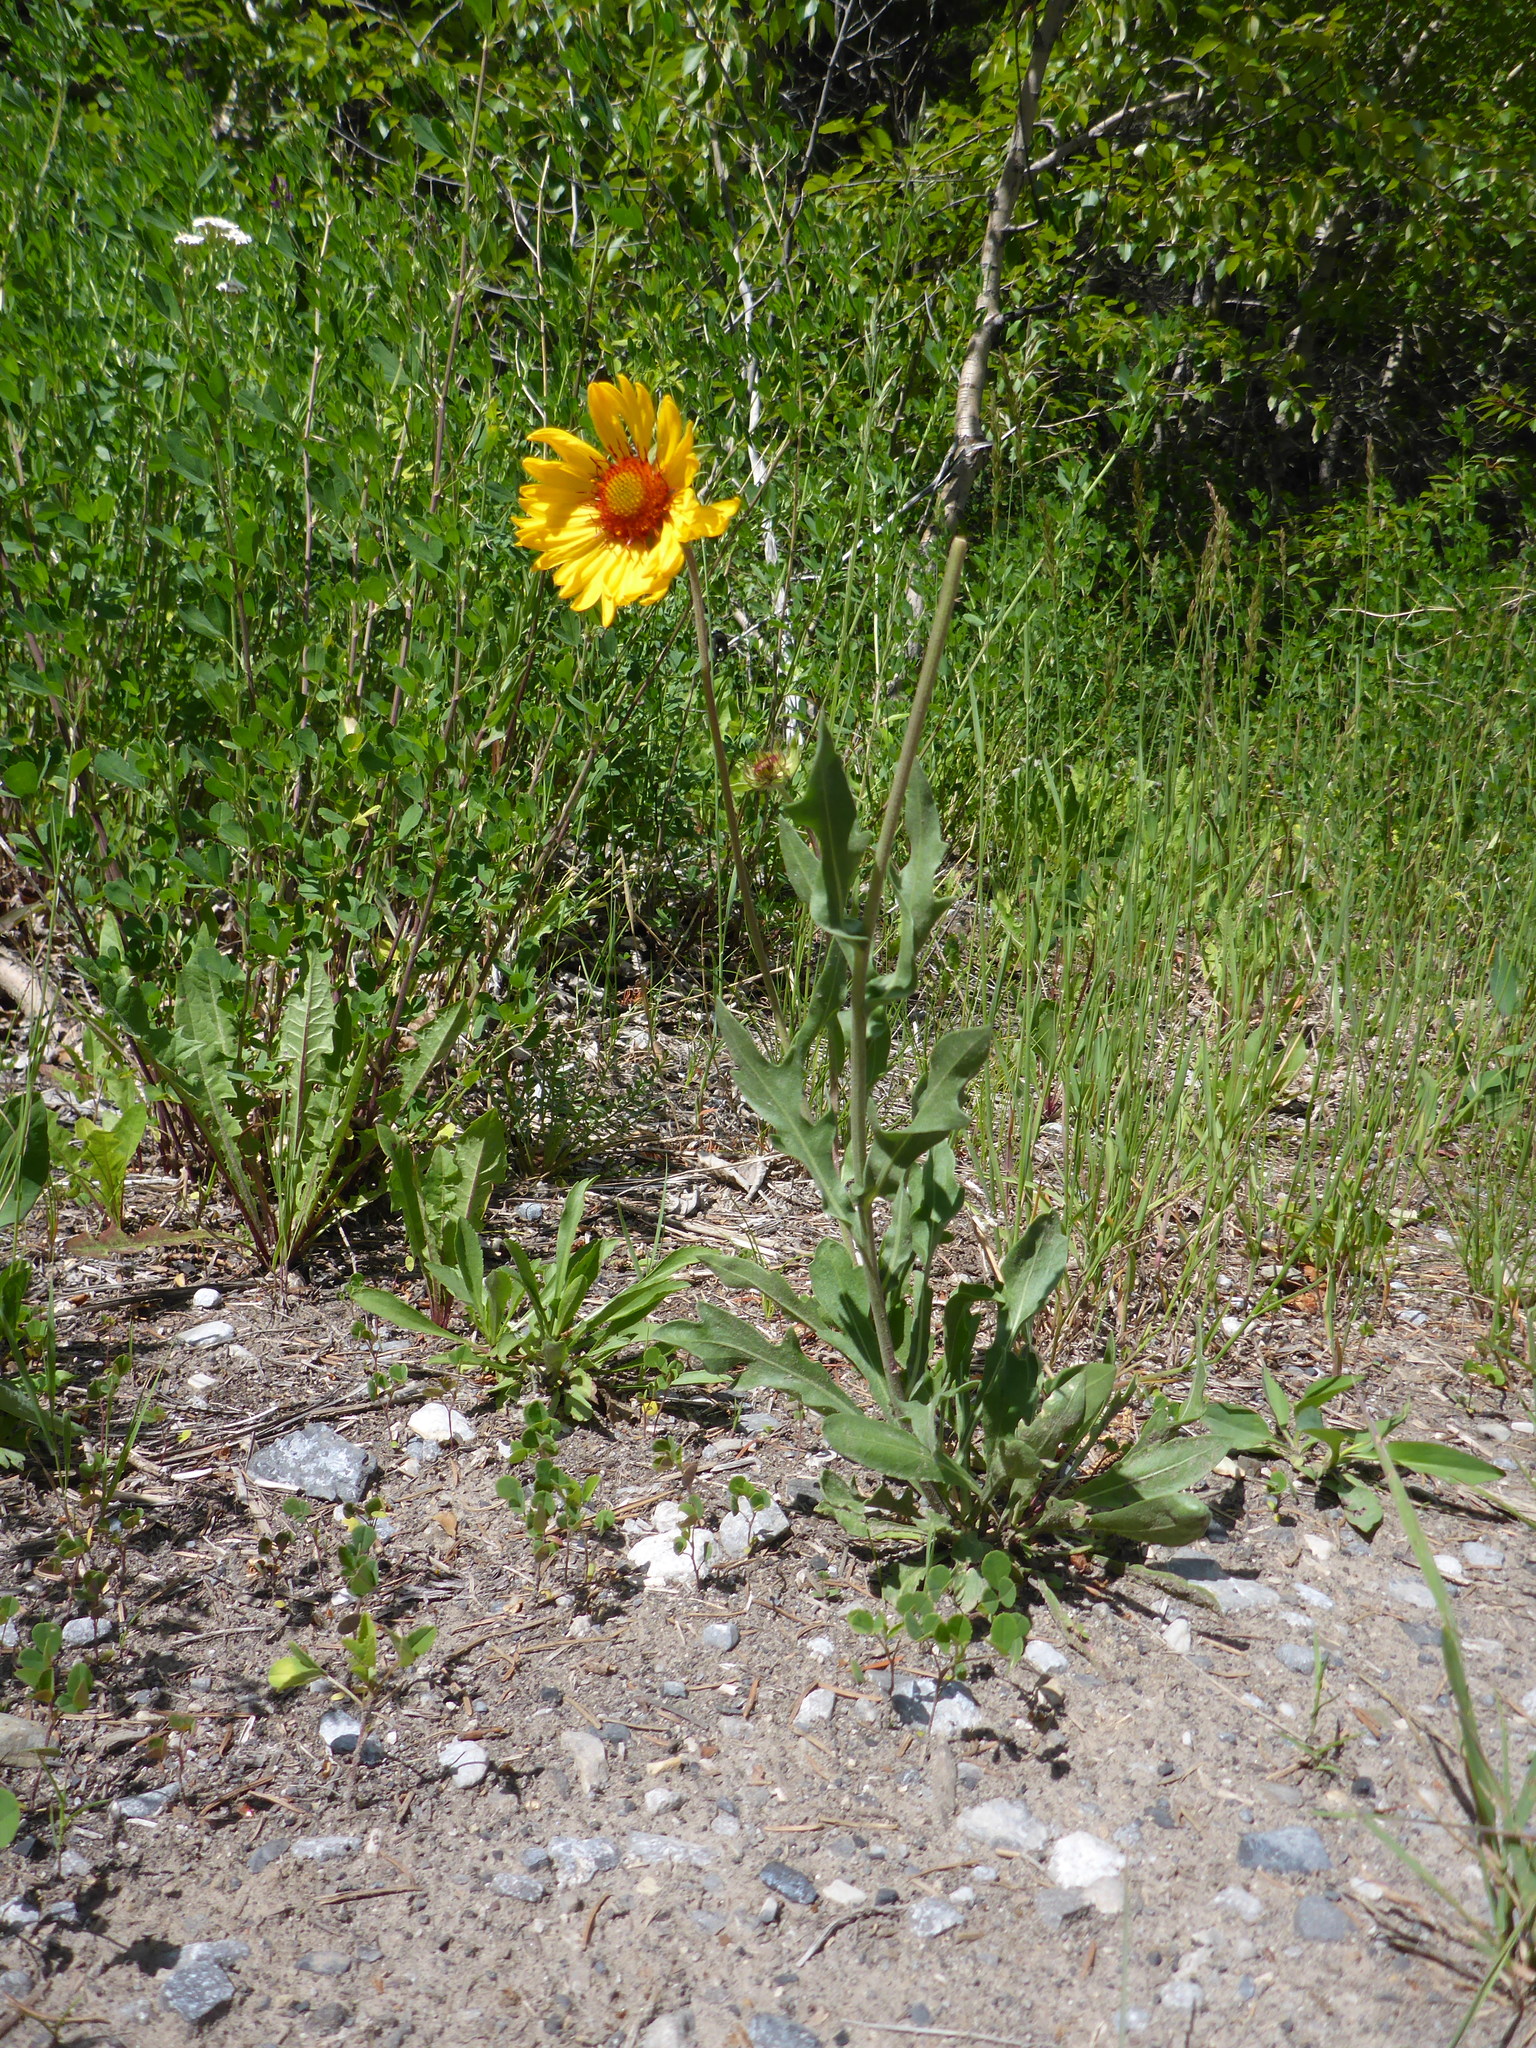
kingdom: Plantae
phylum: Tracheophyta
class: Magnoliopsida
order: Asterales
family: Asteraceae
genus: Gaillardia
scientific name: Gaillardia aristata
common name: Blanket-flower
